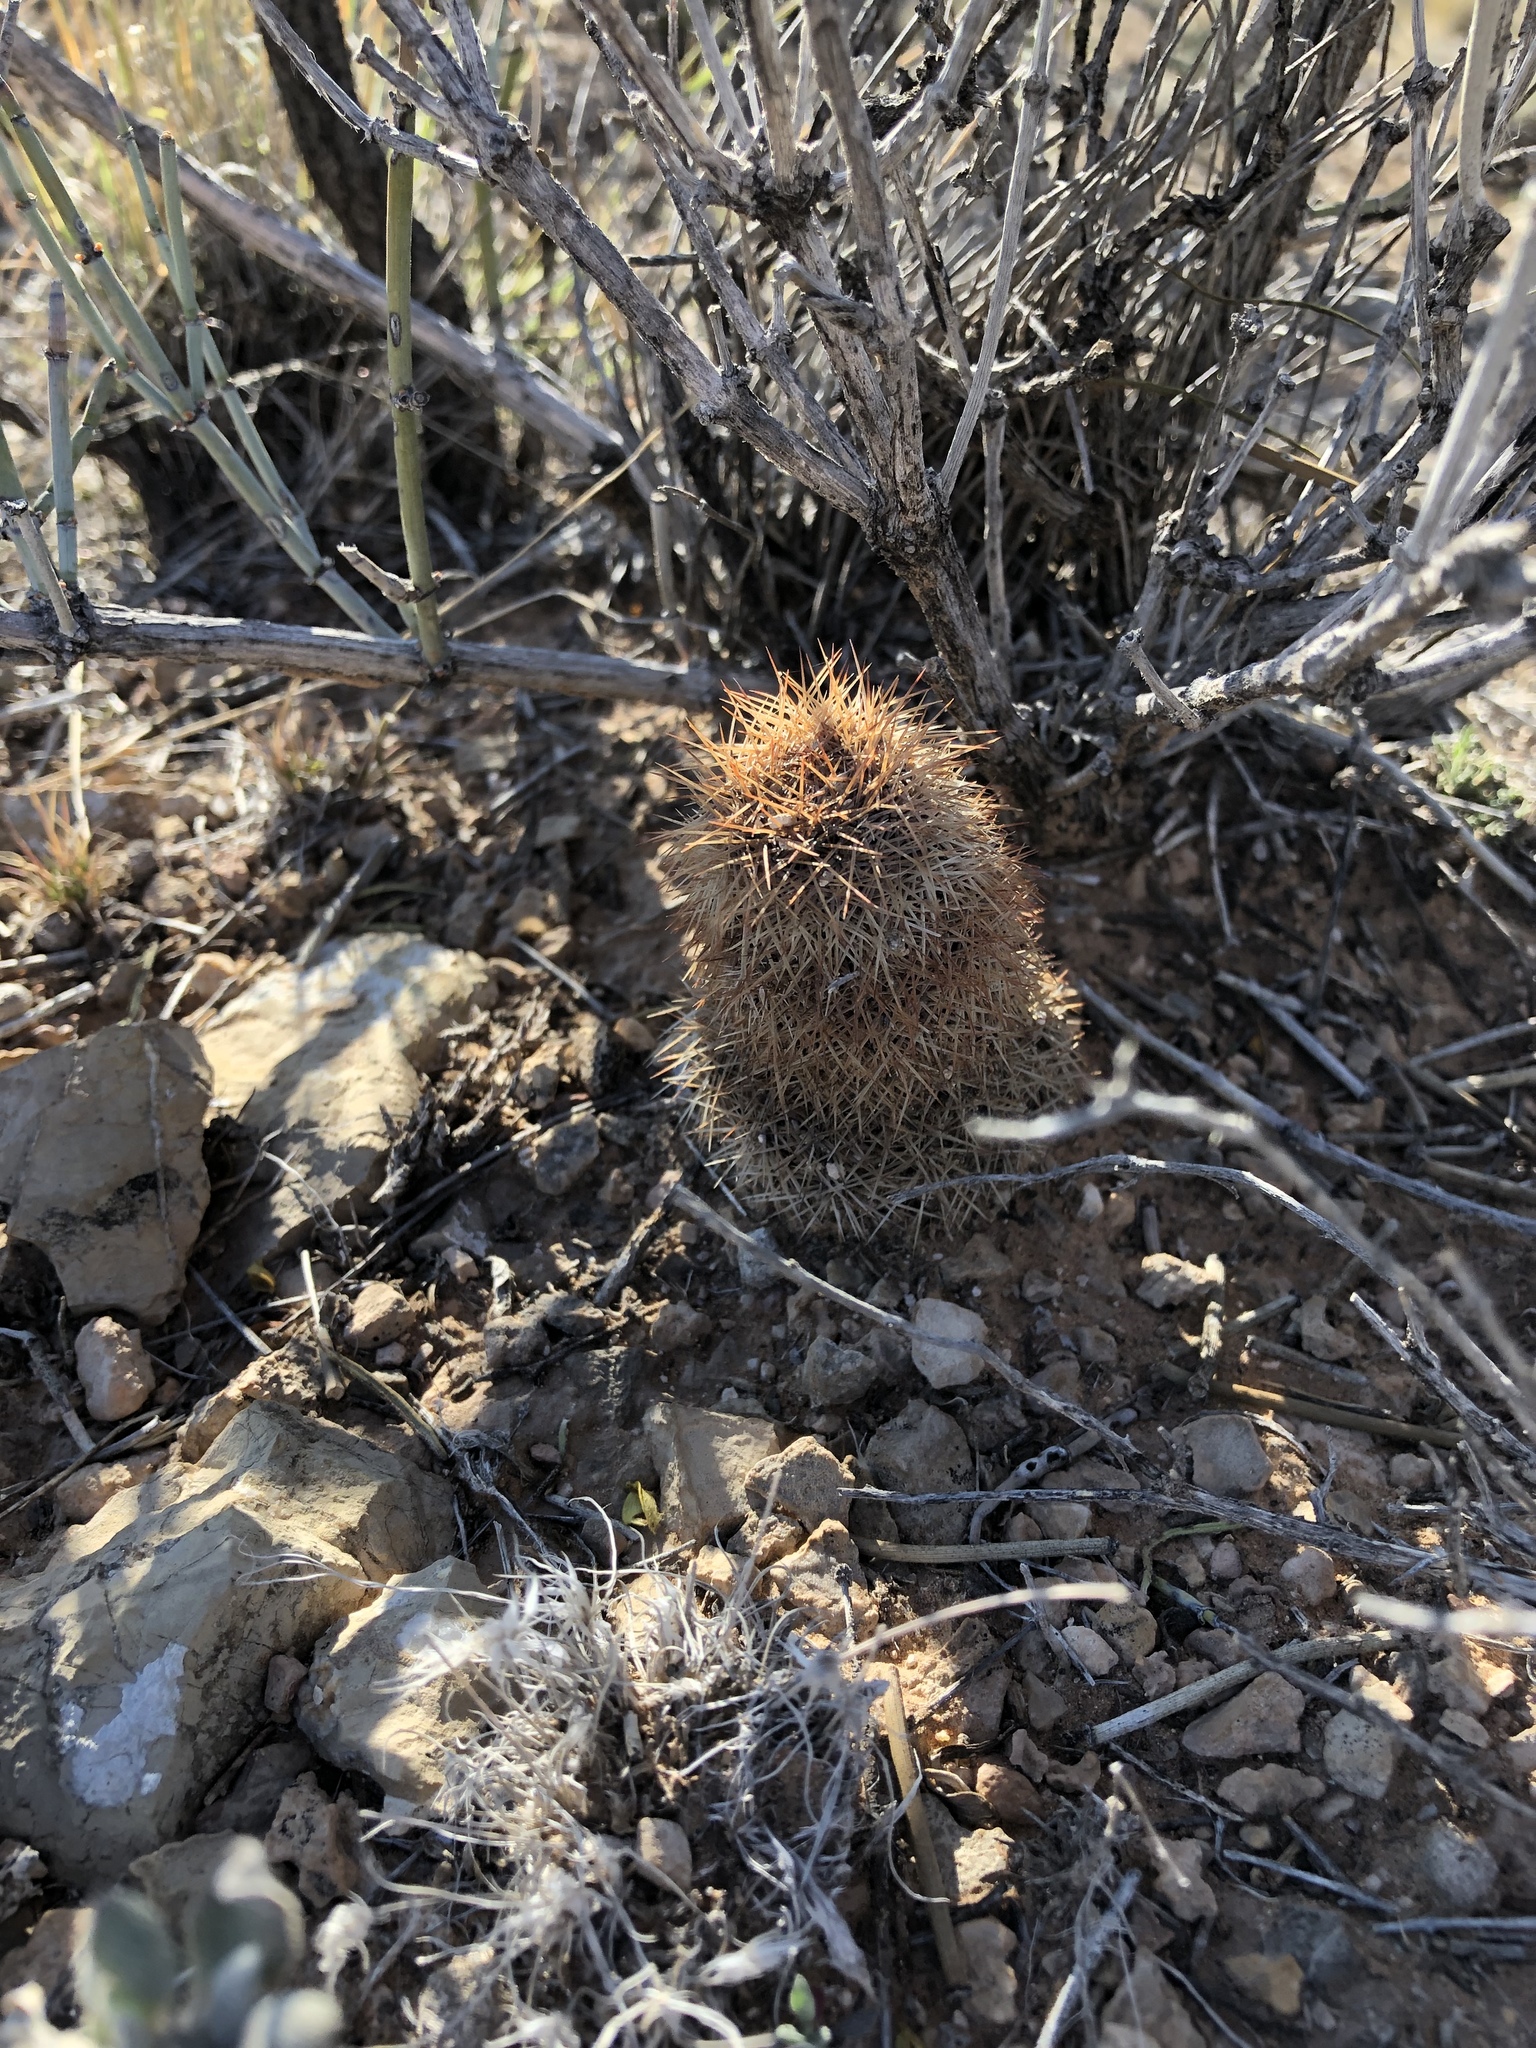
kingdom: Plantae
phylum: Tracheophyta
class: Magnoliopsida
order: Caryophyllales
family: Cactaceae
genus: Echinocereus
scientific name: Echinocereus dasyacanthus
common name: Spiny hedgehog cactus
